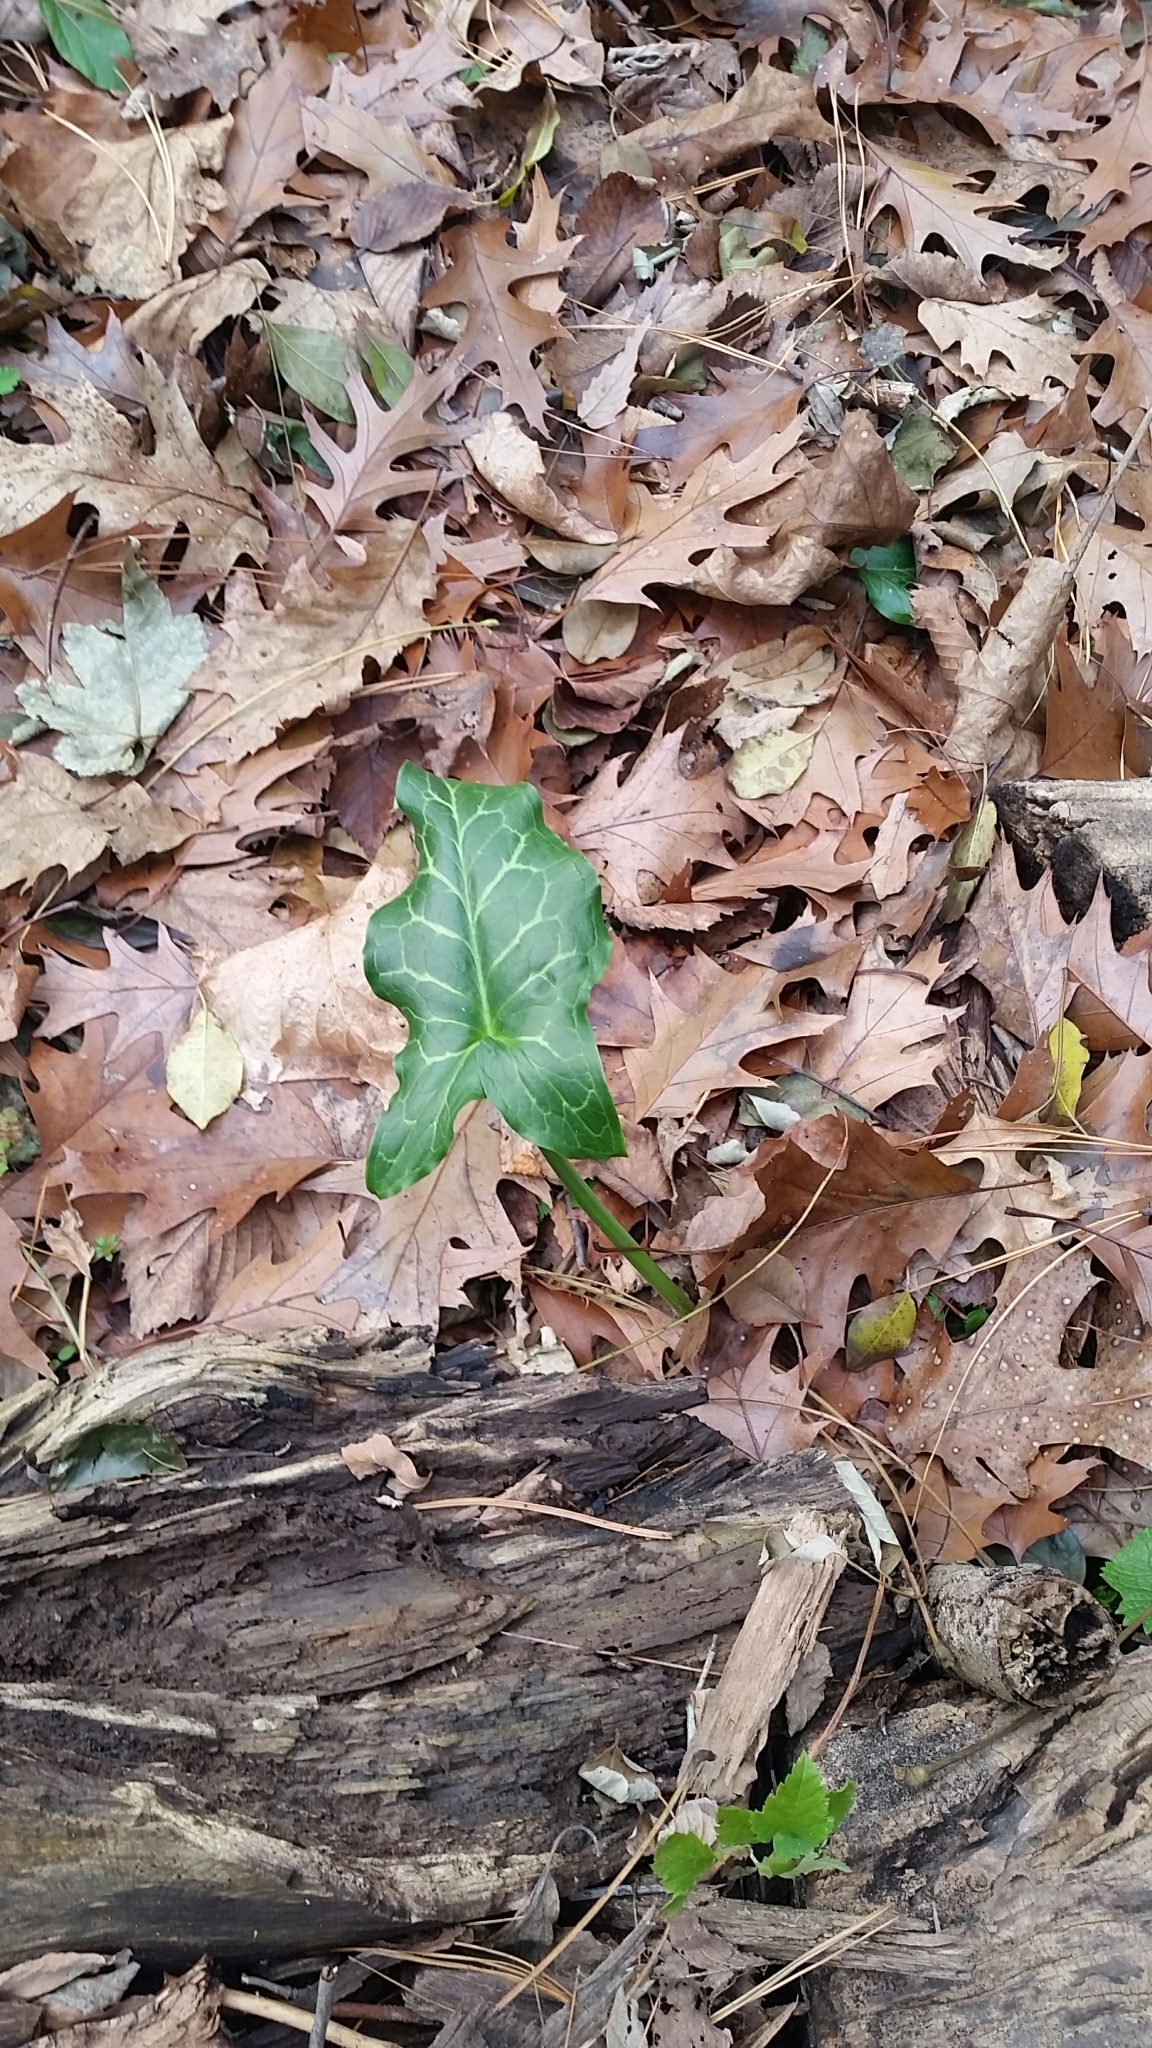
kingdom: Plantae
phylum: Tracheophyta
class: Liliopsida
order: Alismatales
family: Araceae
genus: Arum
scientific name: Arum italicum
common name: Italian lords-and-ladies
